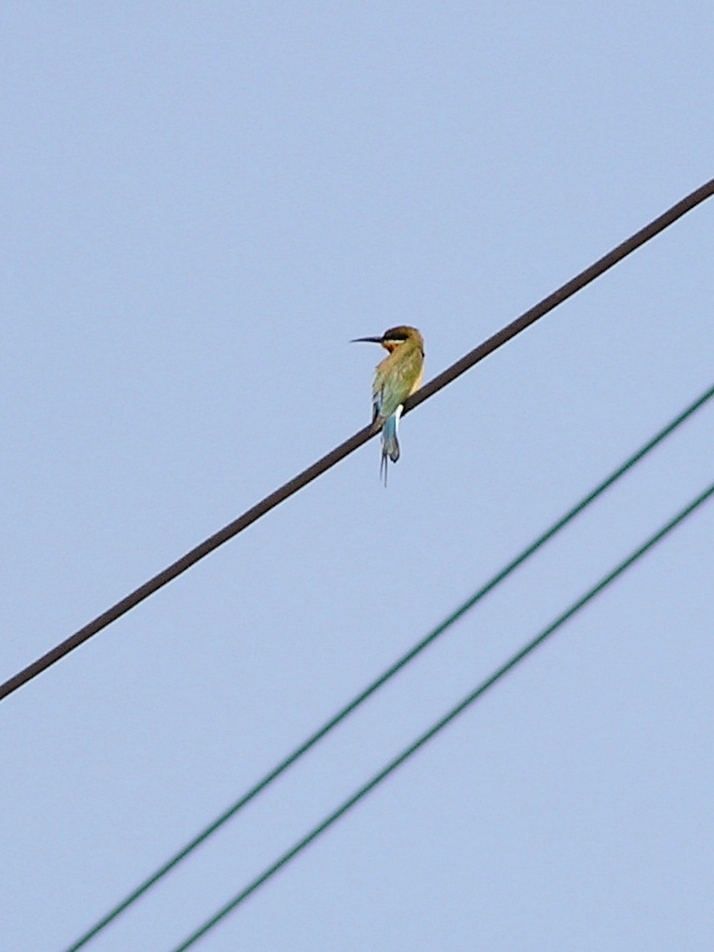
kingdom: Animalia
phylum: Chordata
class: Aves
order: Coraciiformes
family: Meropidae
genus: Merops
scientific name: Merops philippinus
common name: Blue-tailed bee-eater
